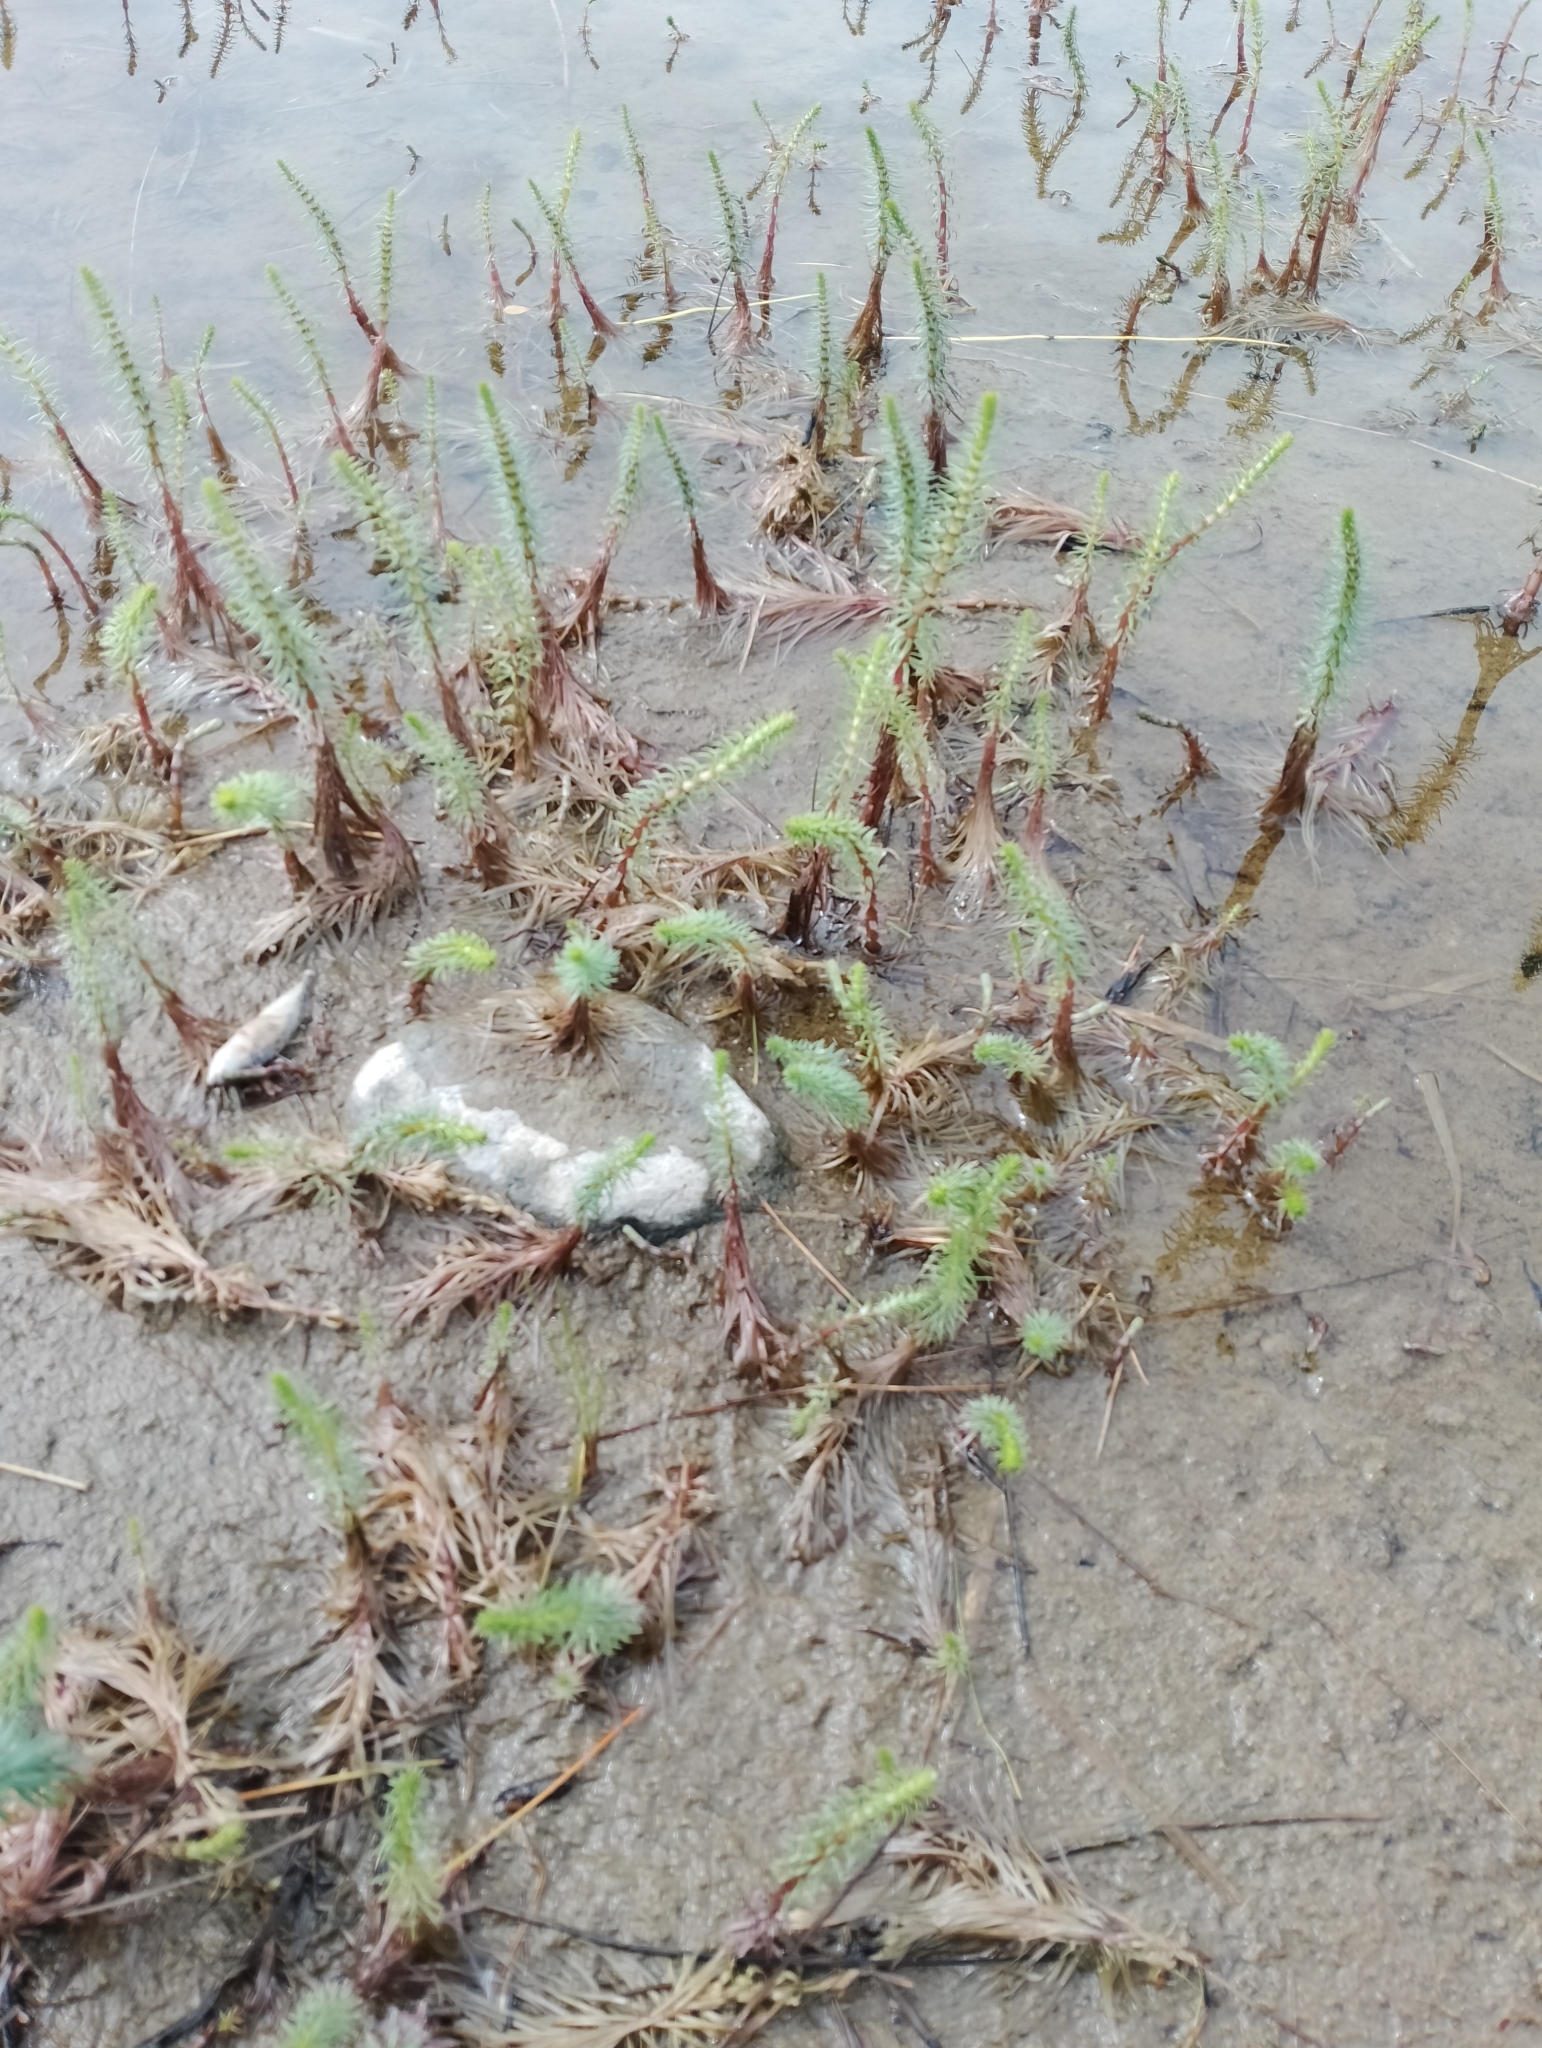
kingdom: Plantae
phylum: Tracheophyta
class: Magnoliopsida
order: Lamiales
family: Plantaginaceae
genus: Hippuris
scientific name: Hippuris vulgaris
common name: Mare's-tail
